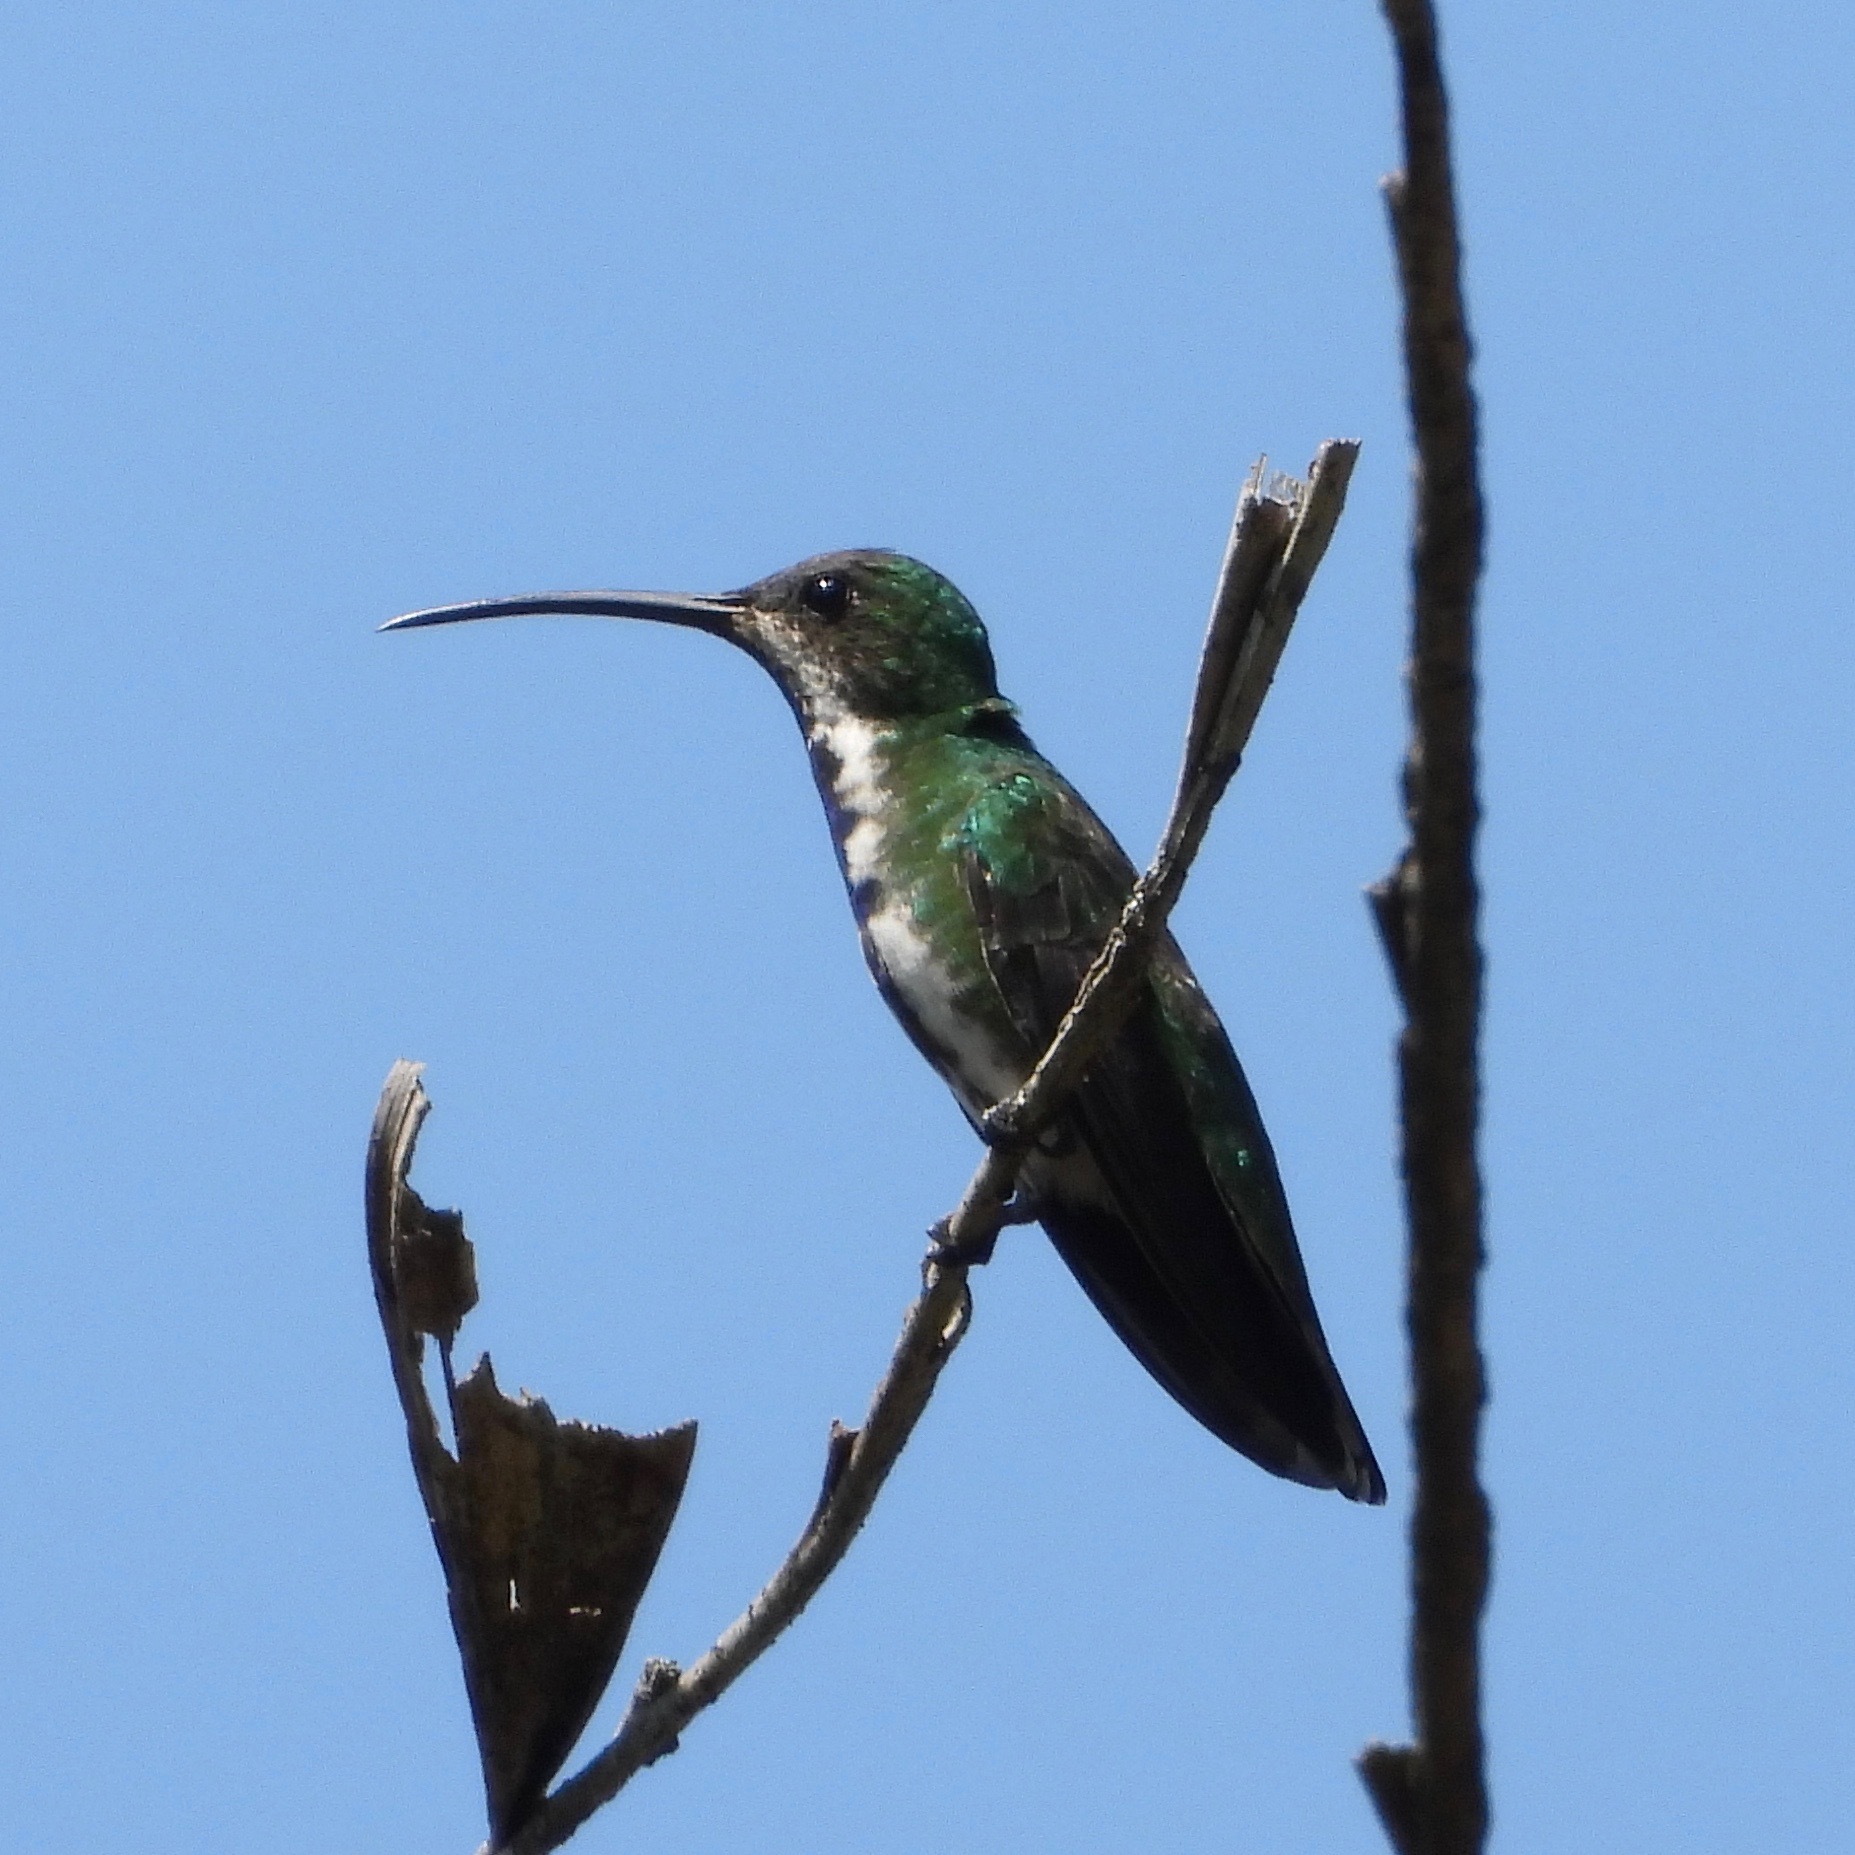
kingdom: Animalia
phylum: Chordata
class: Aves
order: Apodiformes
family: Trochilidae
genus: Anthracothorax
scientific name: Anthracothorax prevostii
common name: Green-breasted mango
